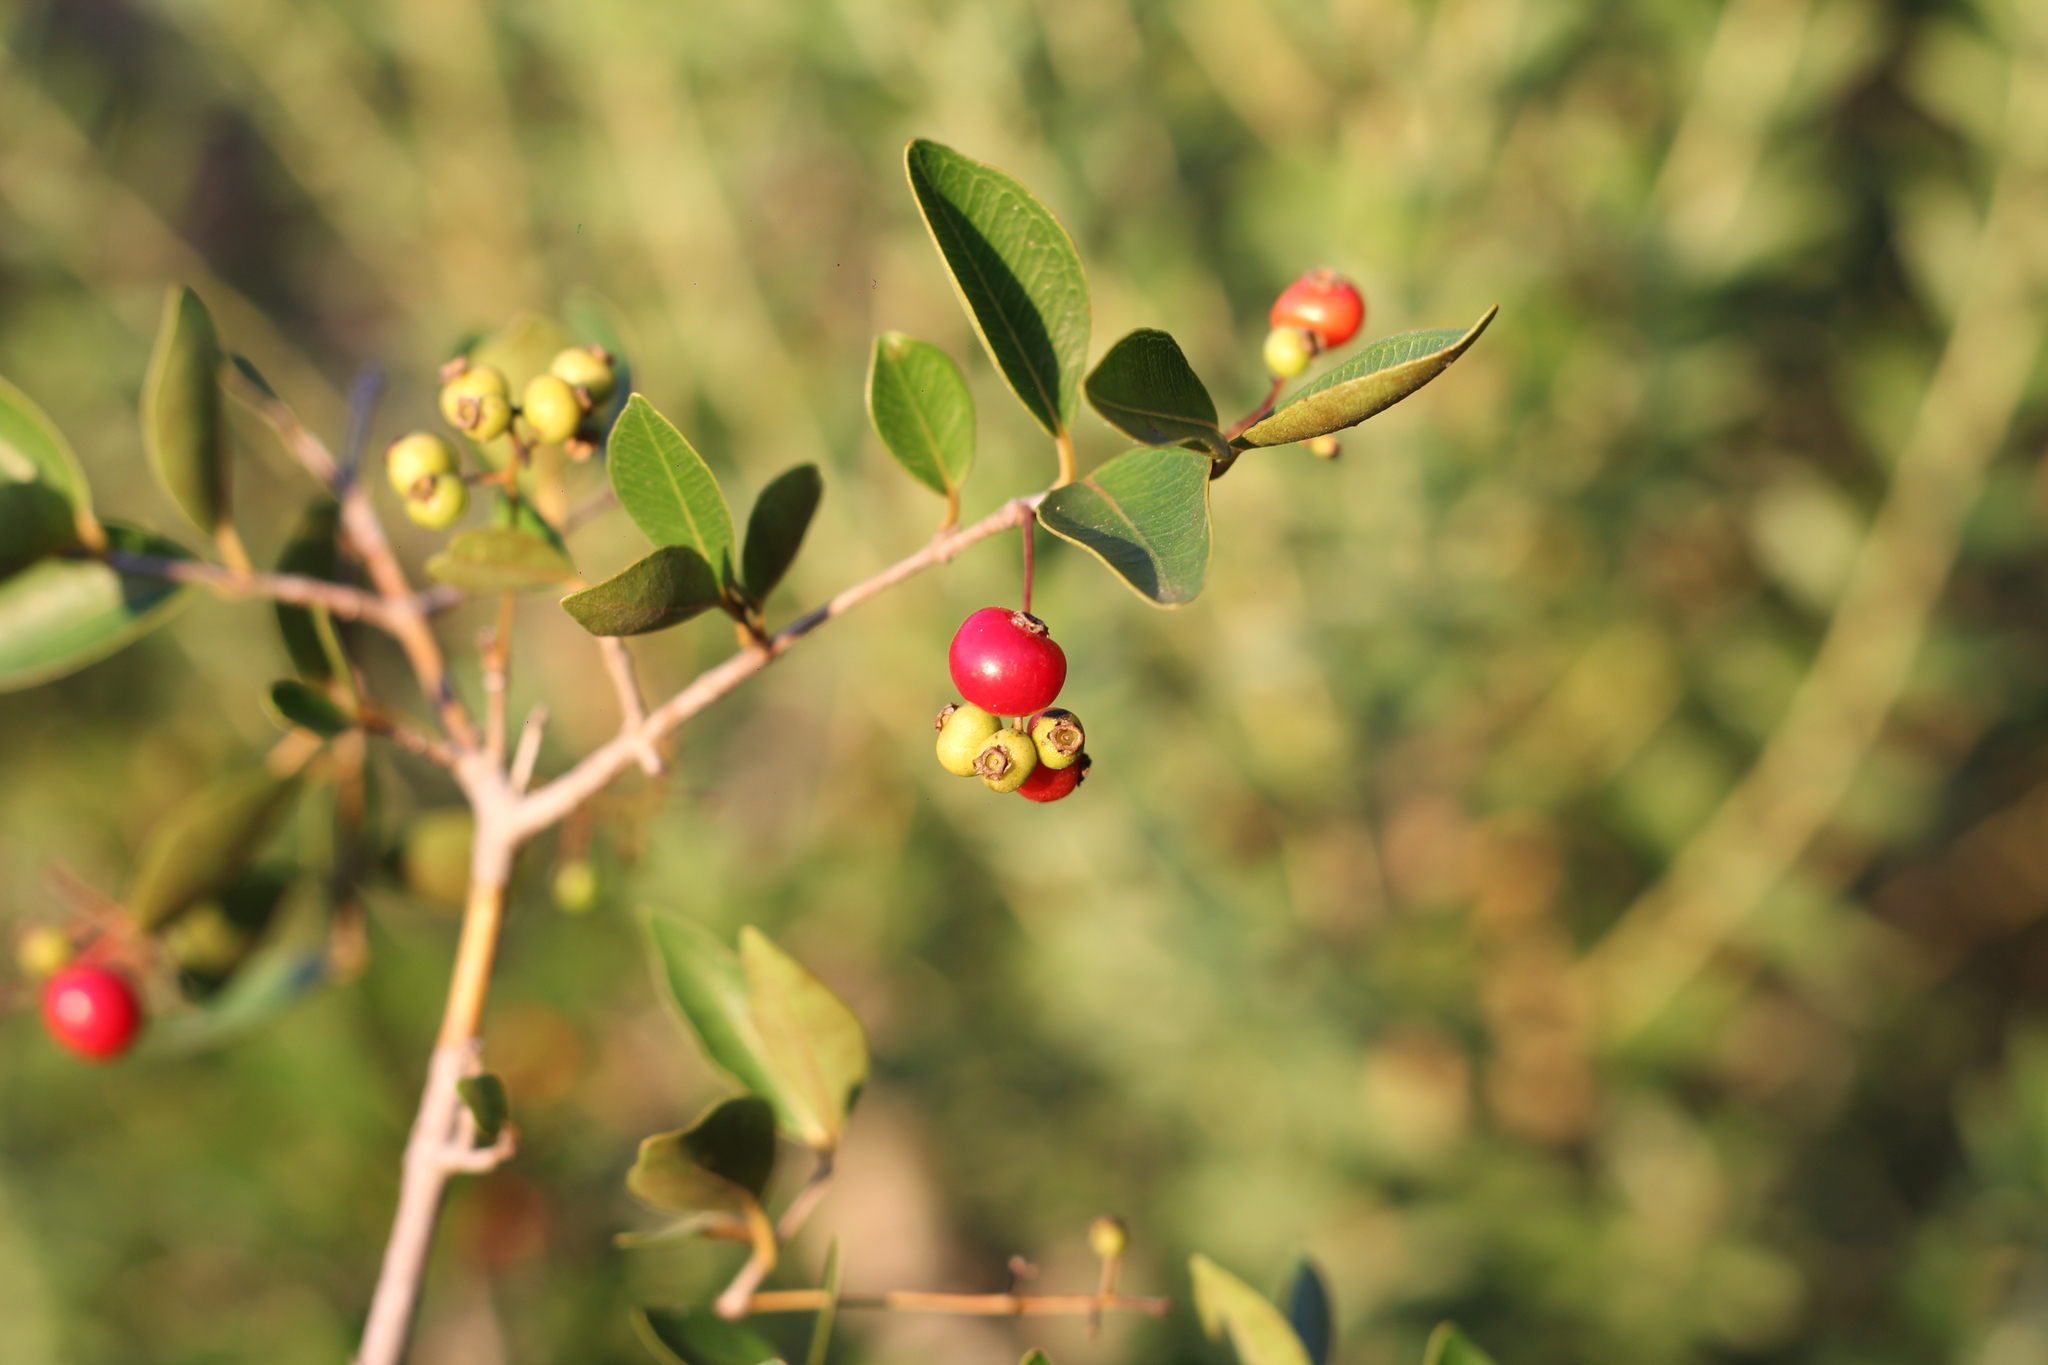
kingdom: Plantae
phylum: Tracheophyta
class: Magnoliopsida
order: Myrtales
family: Myrtaceae
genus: Myrcia
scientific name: Myrcia selloi
